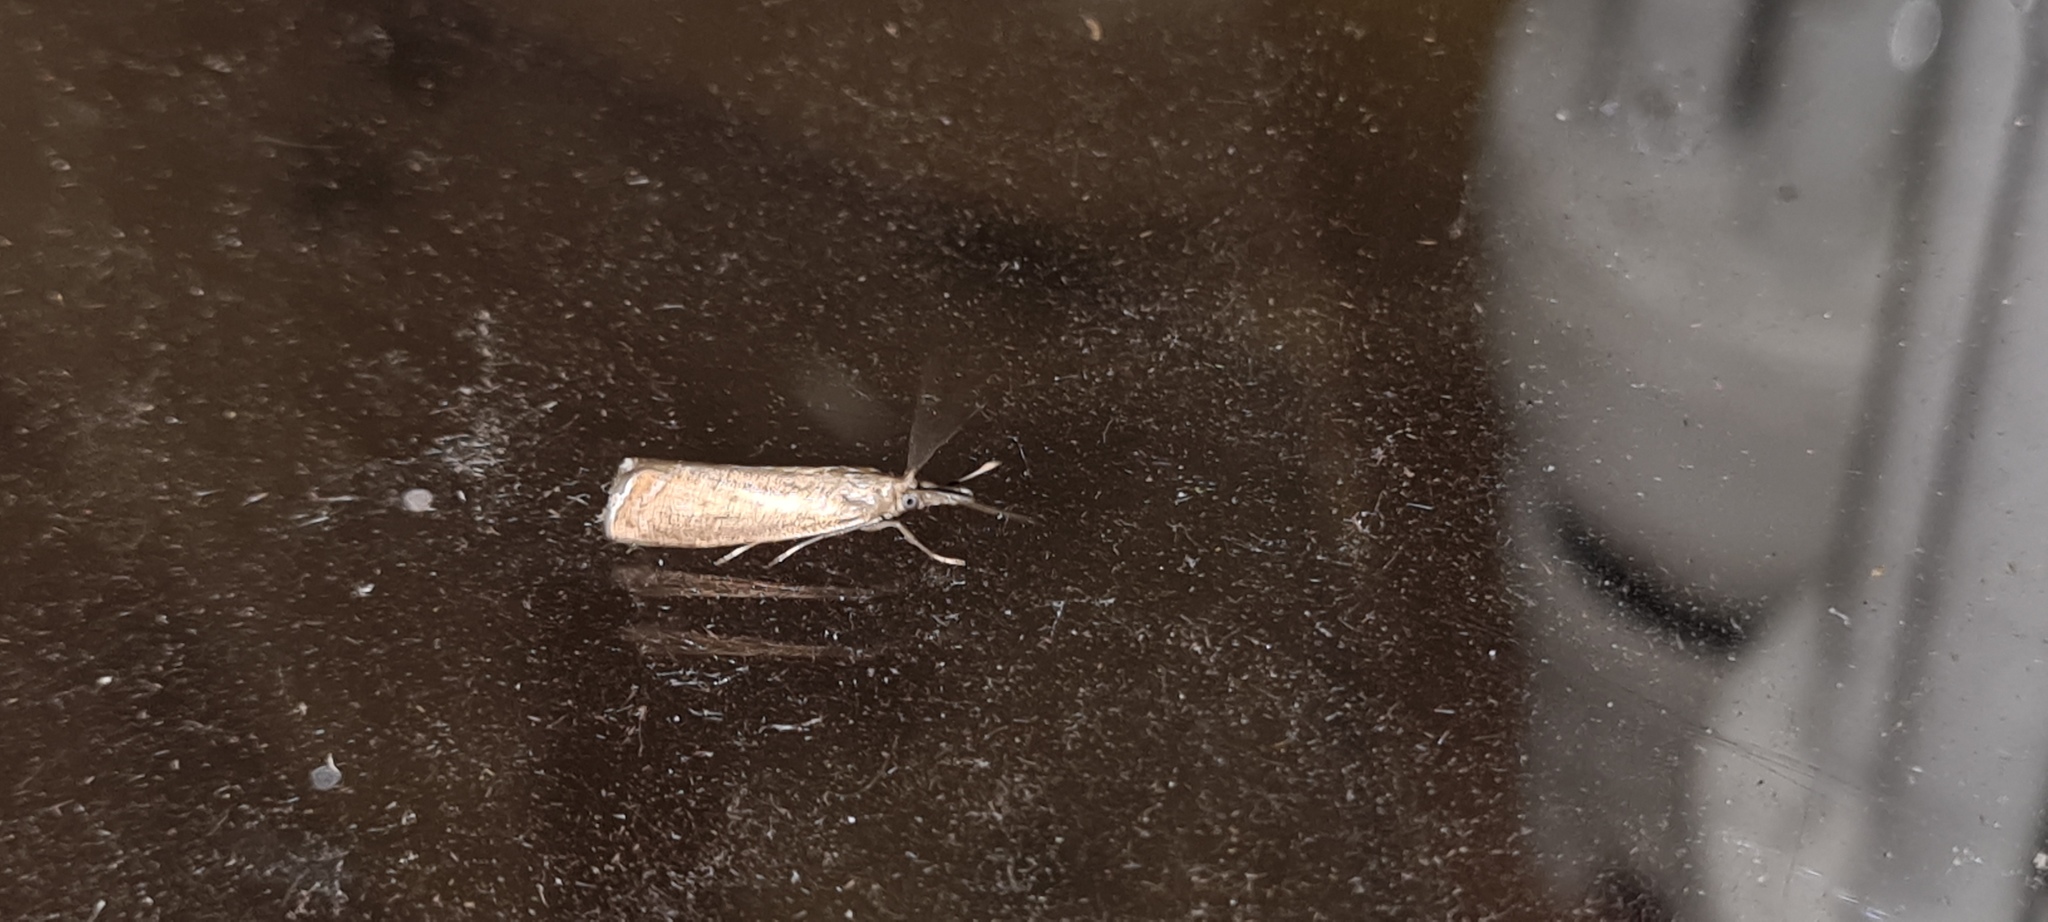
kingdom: Animalia
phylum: Arthropoda
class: Insecta
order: Lepidoptera
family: Crambidae
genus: Chrysoteuchia
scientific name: Chrysoteuchia culmella
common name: Garden grass-veneer
